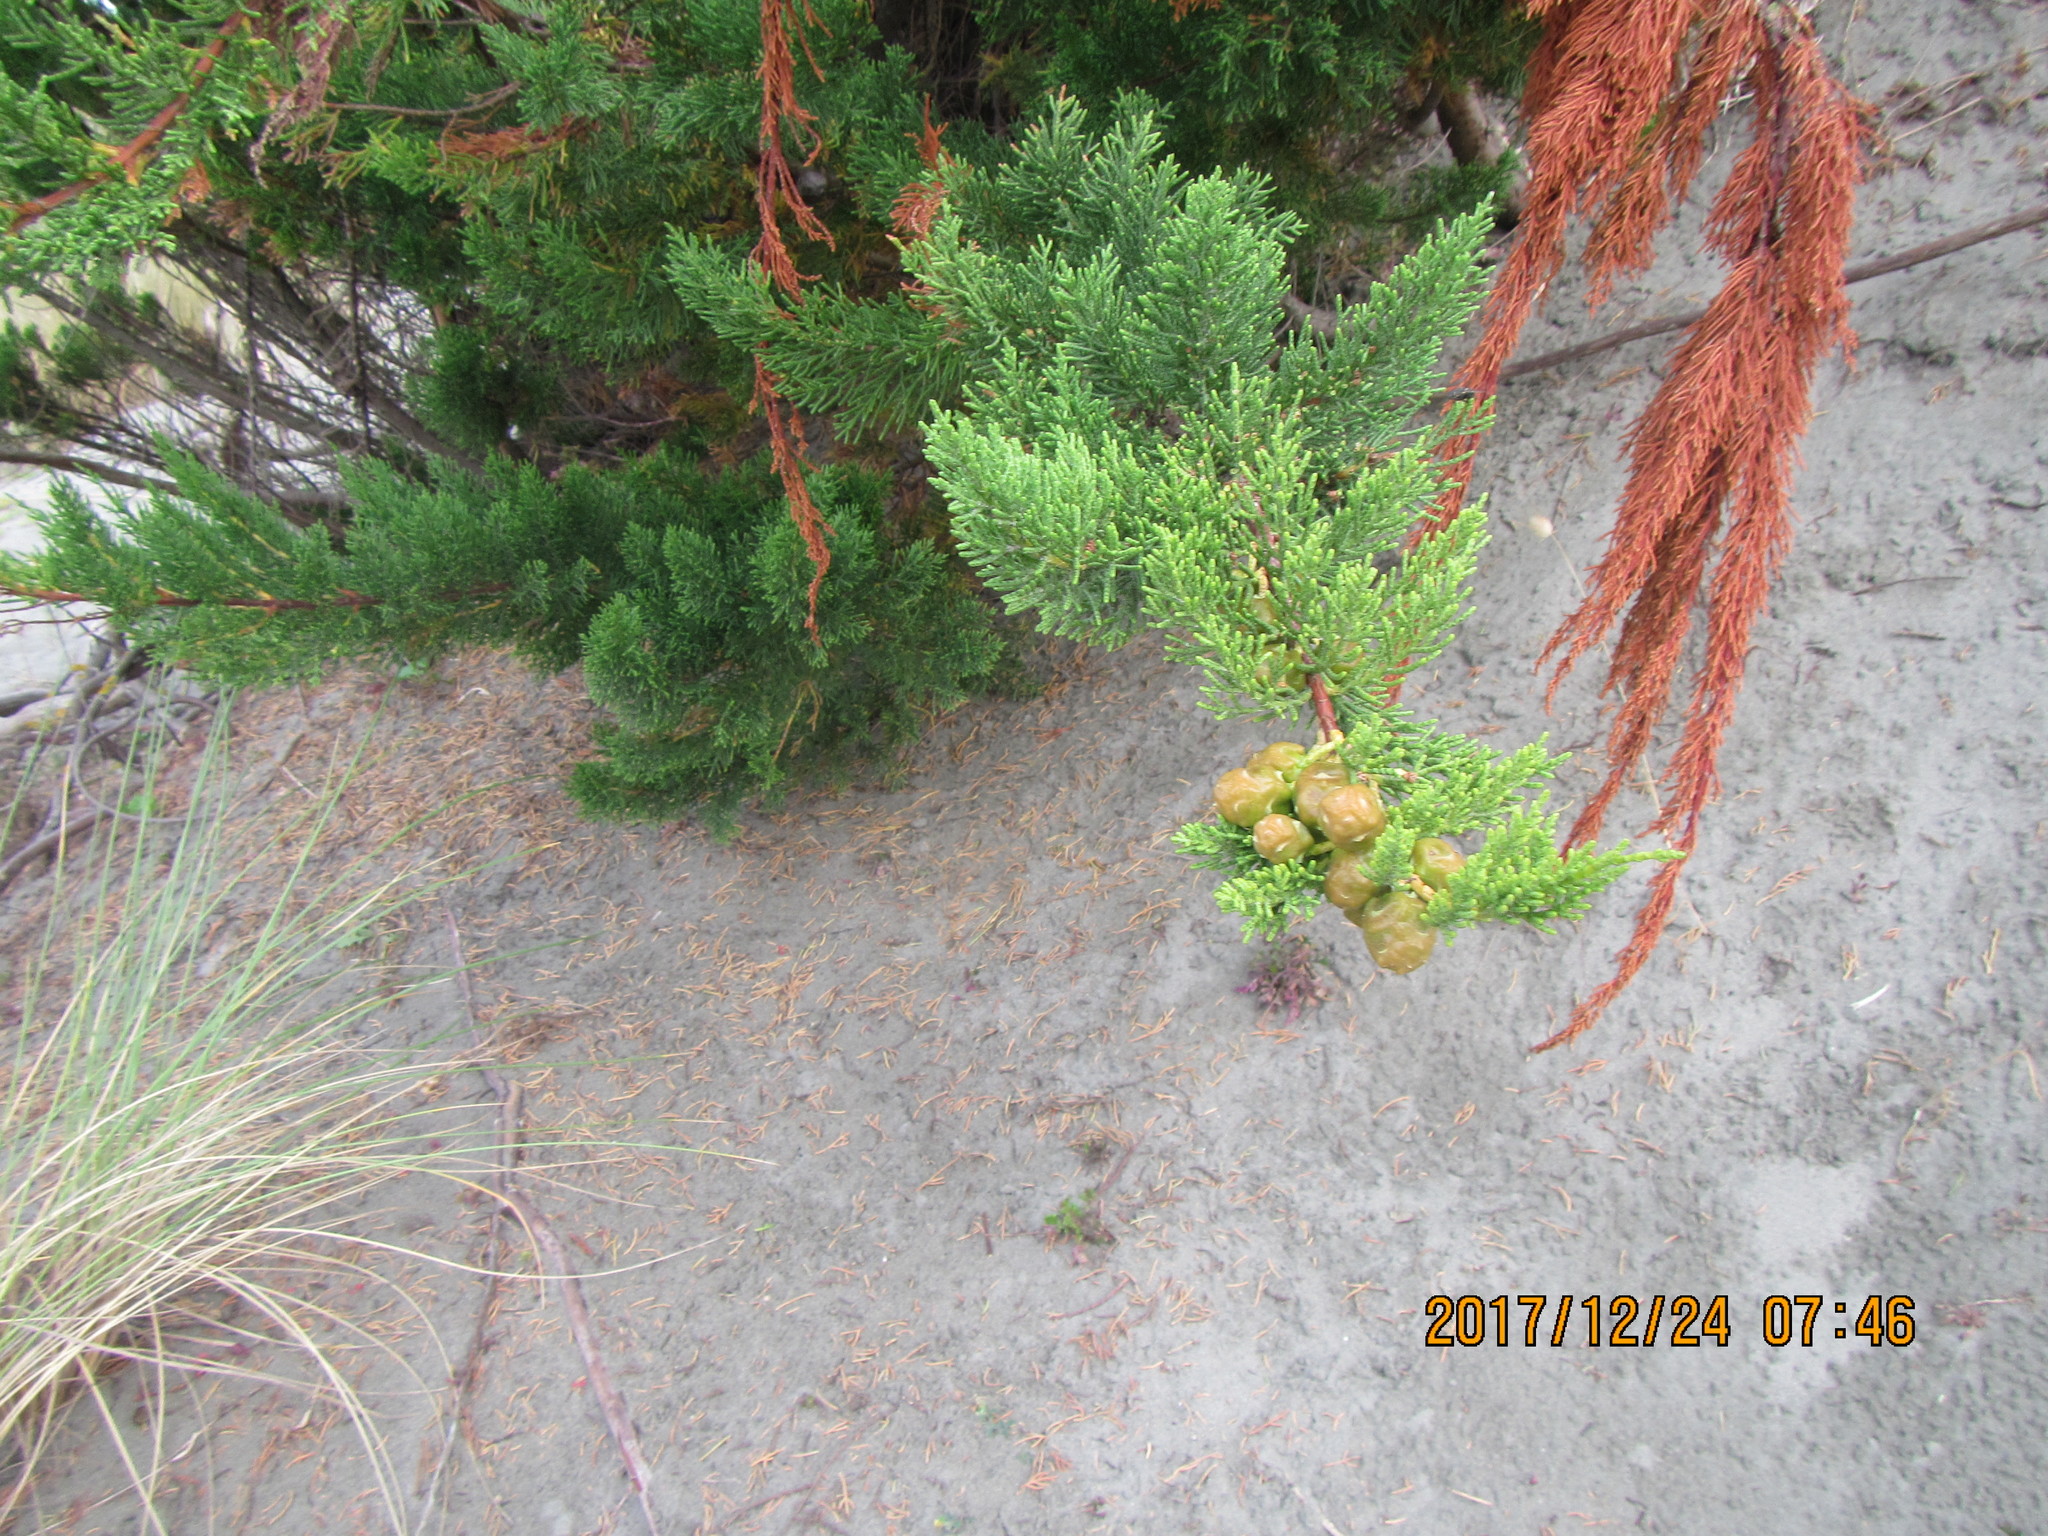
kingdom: Plantae
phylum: Tracheophyta
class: Pinopsida
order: Pinales
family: Cupressaceae
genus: Cupressus
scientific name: Cupressus macrocarpa
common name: Monterey cypress
